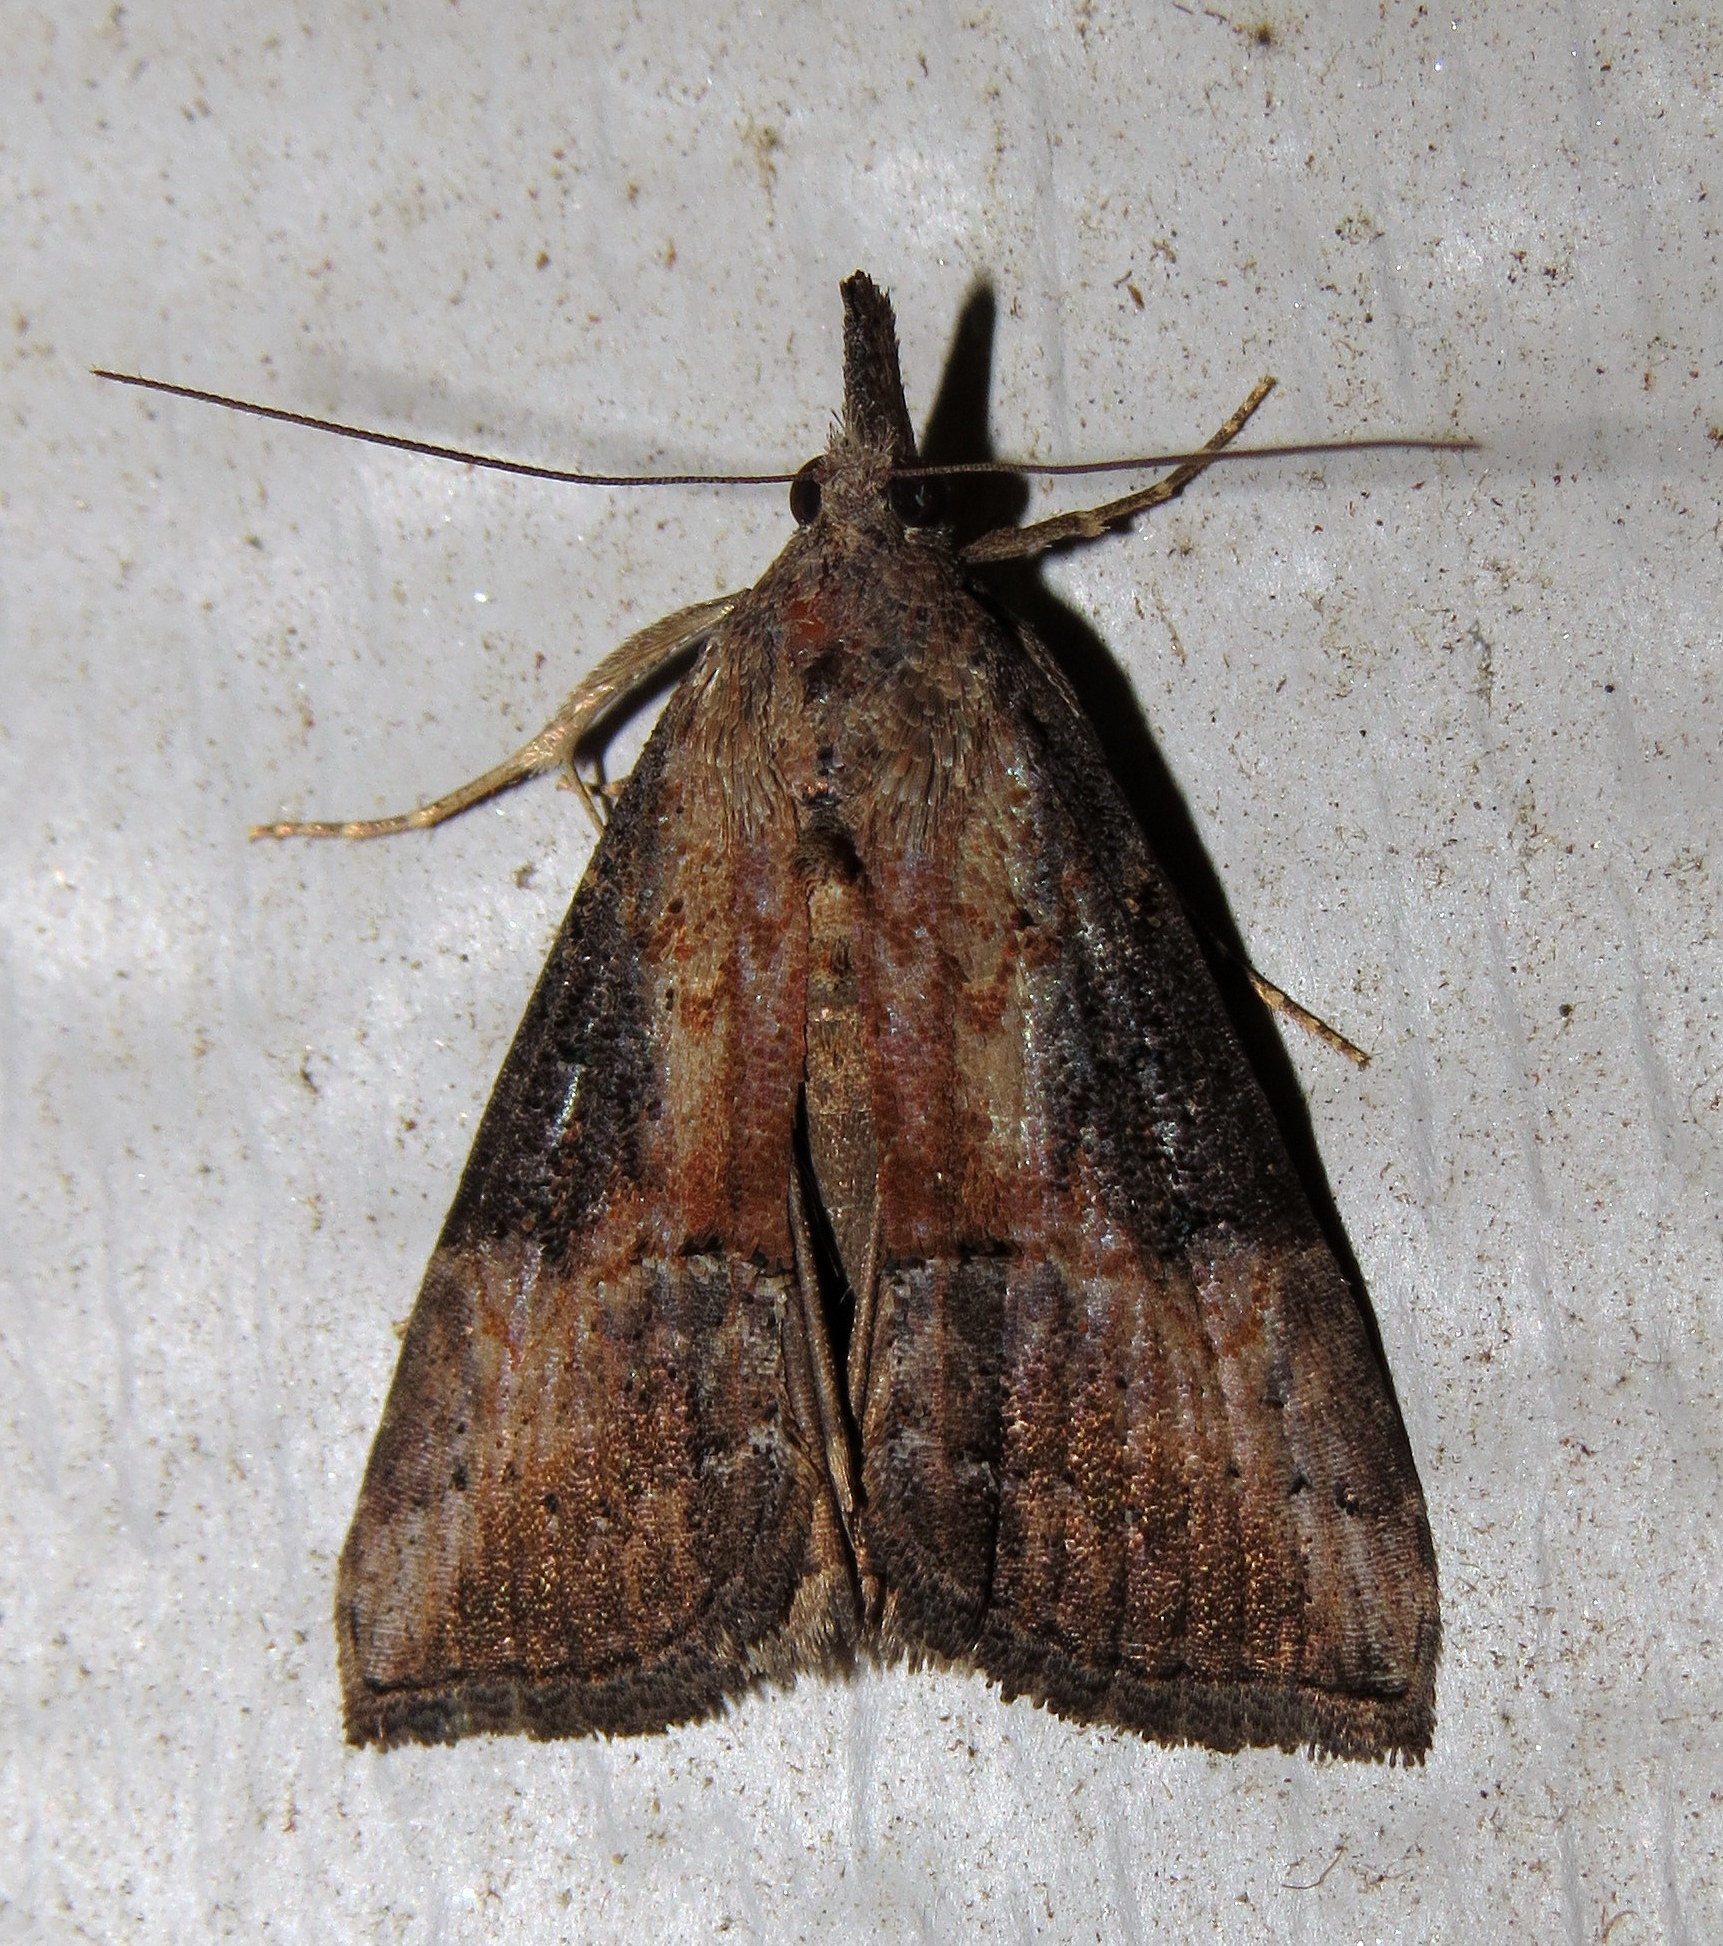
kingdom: Animalia
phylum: Arthropoda
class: Insecta
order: Lepidoptera
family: Erebidae
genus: Hypena
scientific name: Hypena scabra
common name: Green cloverworm
